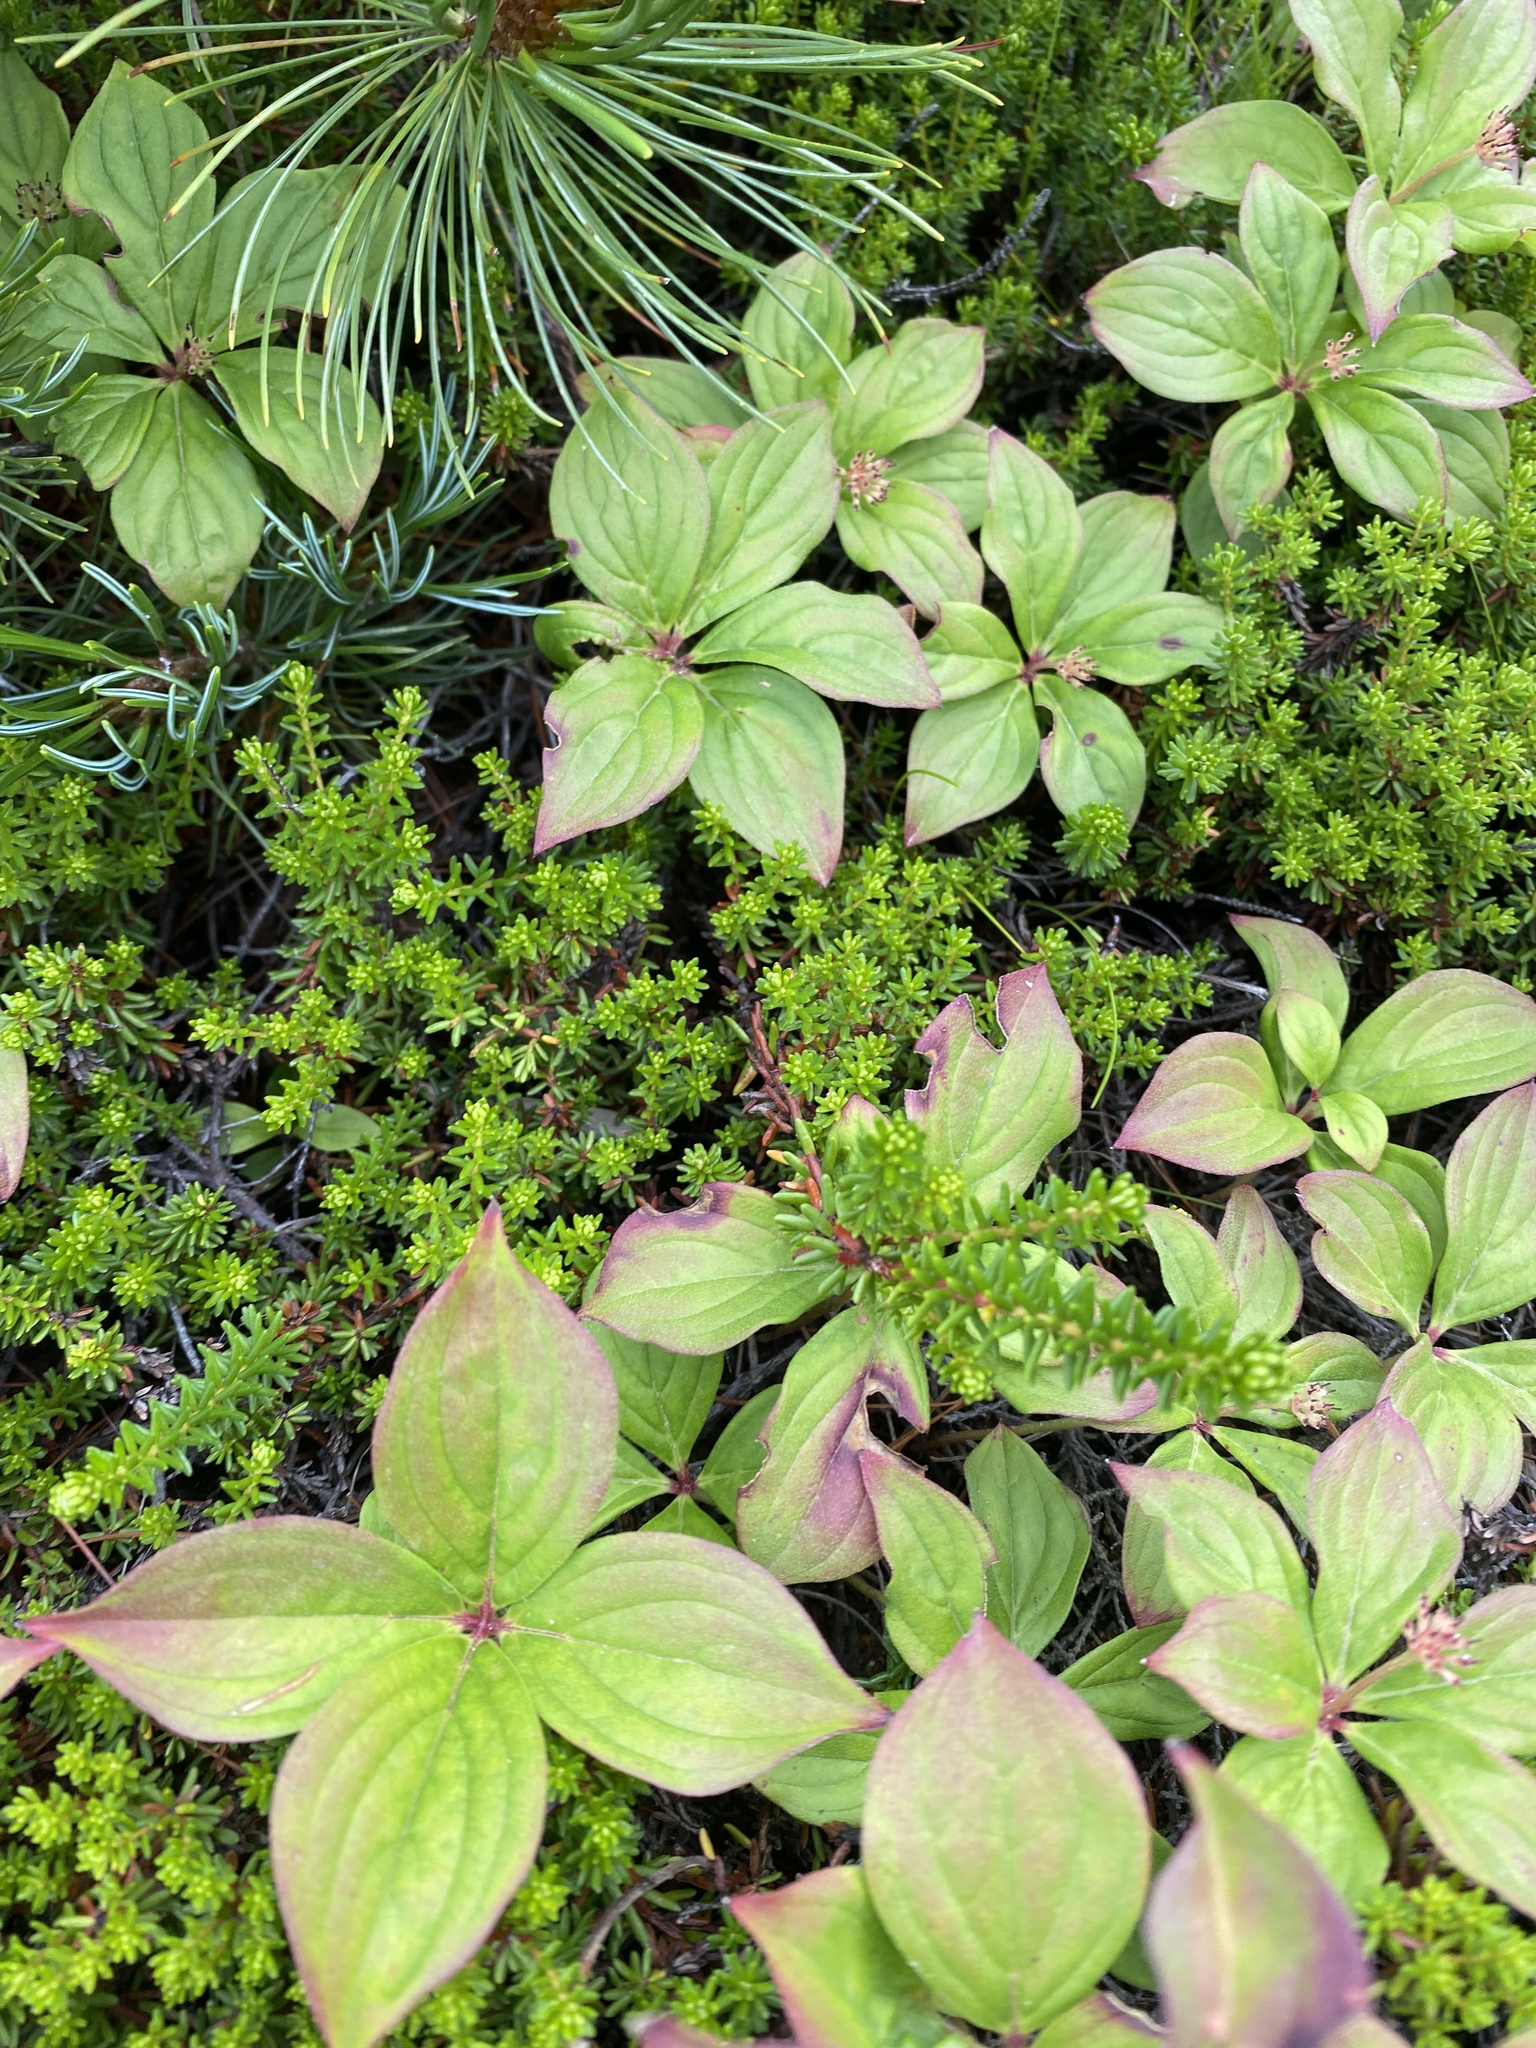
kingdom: Plantae
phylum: Tracheophyta
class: Magnoliopsida
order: Cornales
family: Cornaceae
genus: Cornus
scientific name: Cornus canadensis
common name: Creeping dogwood
